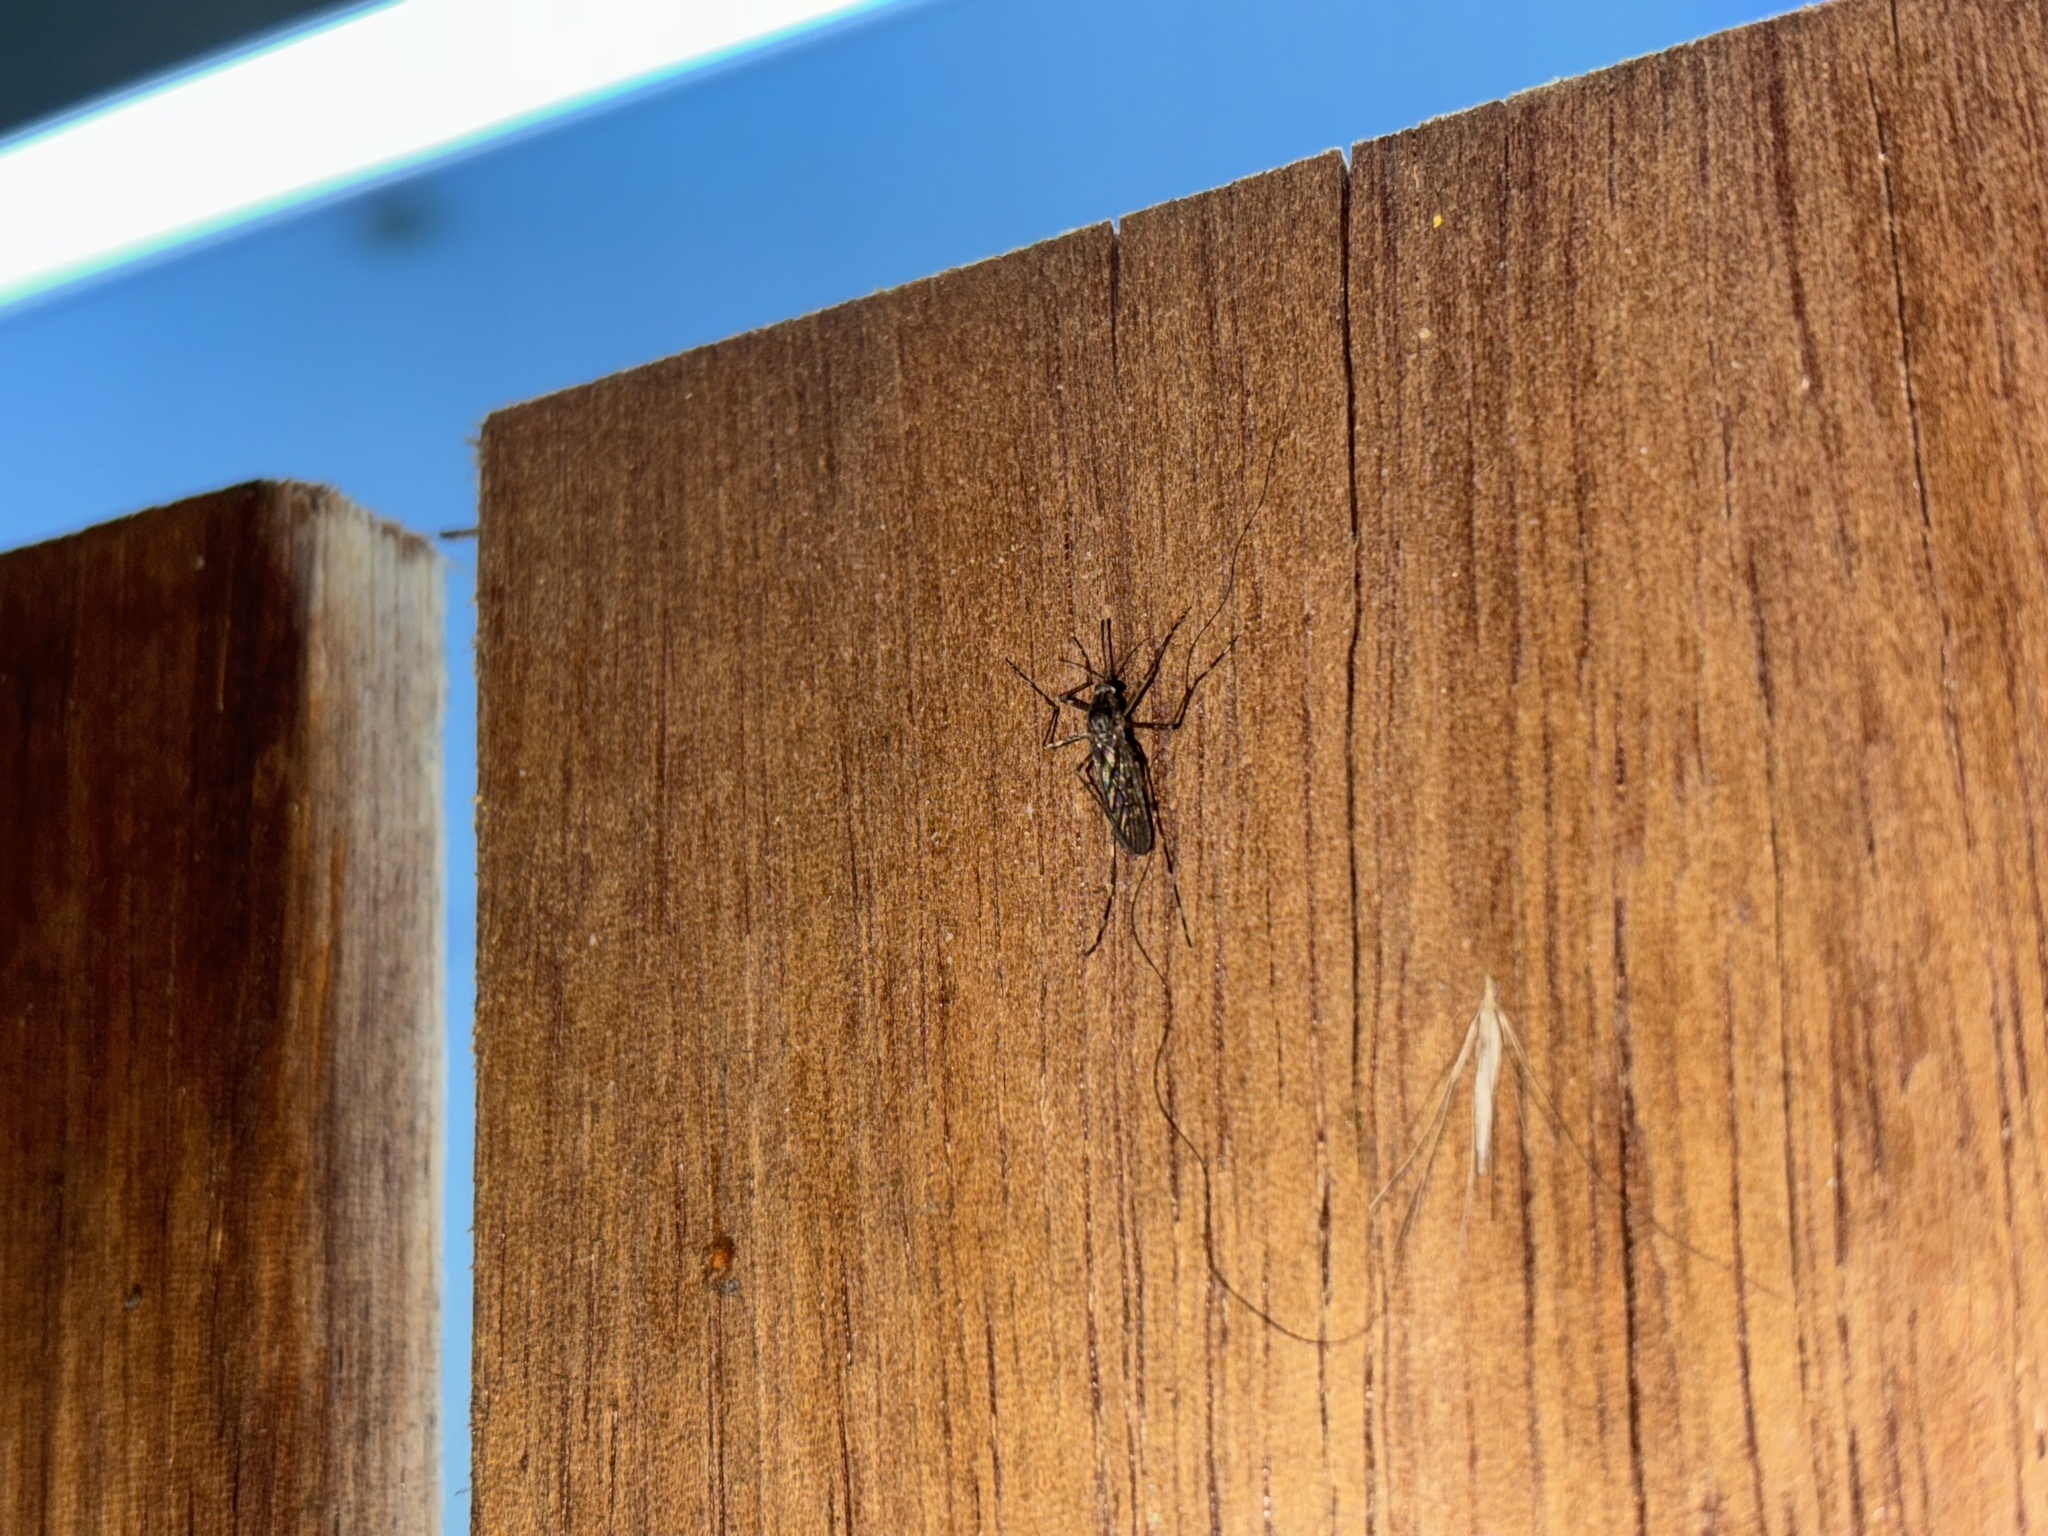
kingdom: Animalia
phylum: Arthropoda
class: Insecta
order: Diptera
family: Culicidae
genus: Culiseta
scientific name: Culiseta annulata
